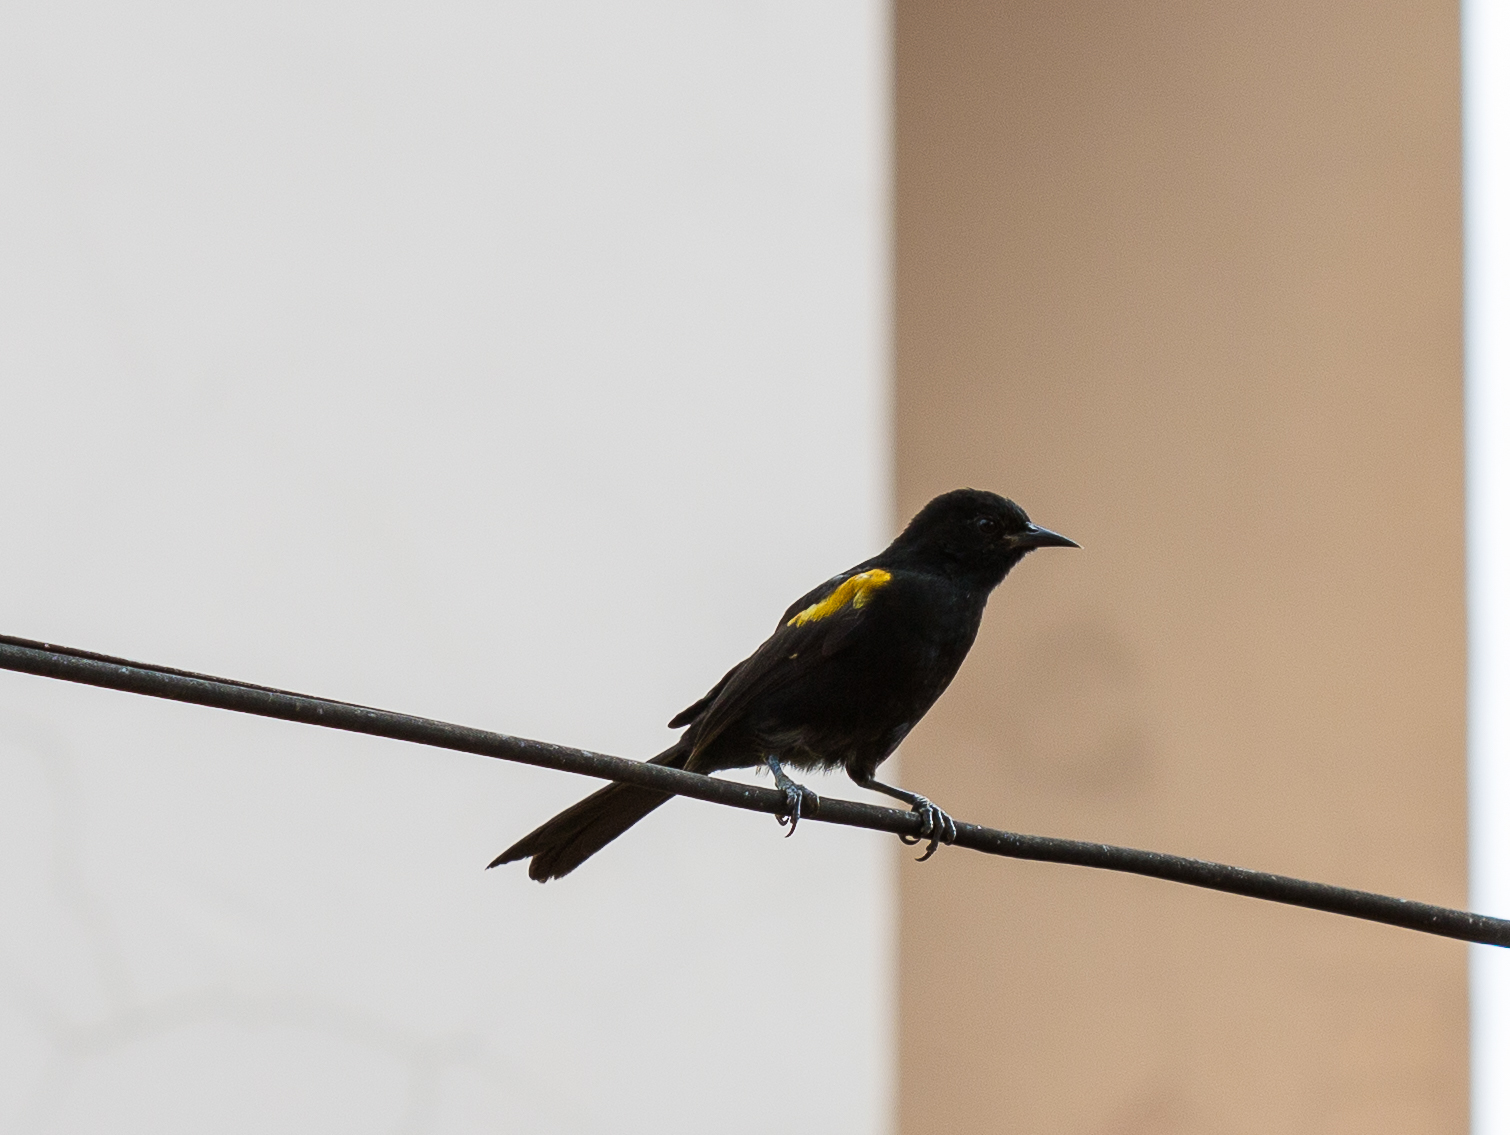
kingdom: Animalia
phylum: Chordata
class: Aves
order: Passeriformes
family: Icteridae
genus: Icterus
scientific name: Icterus cayanensis
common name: Epaulet oriole
